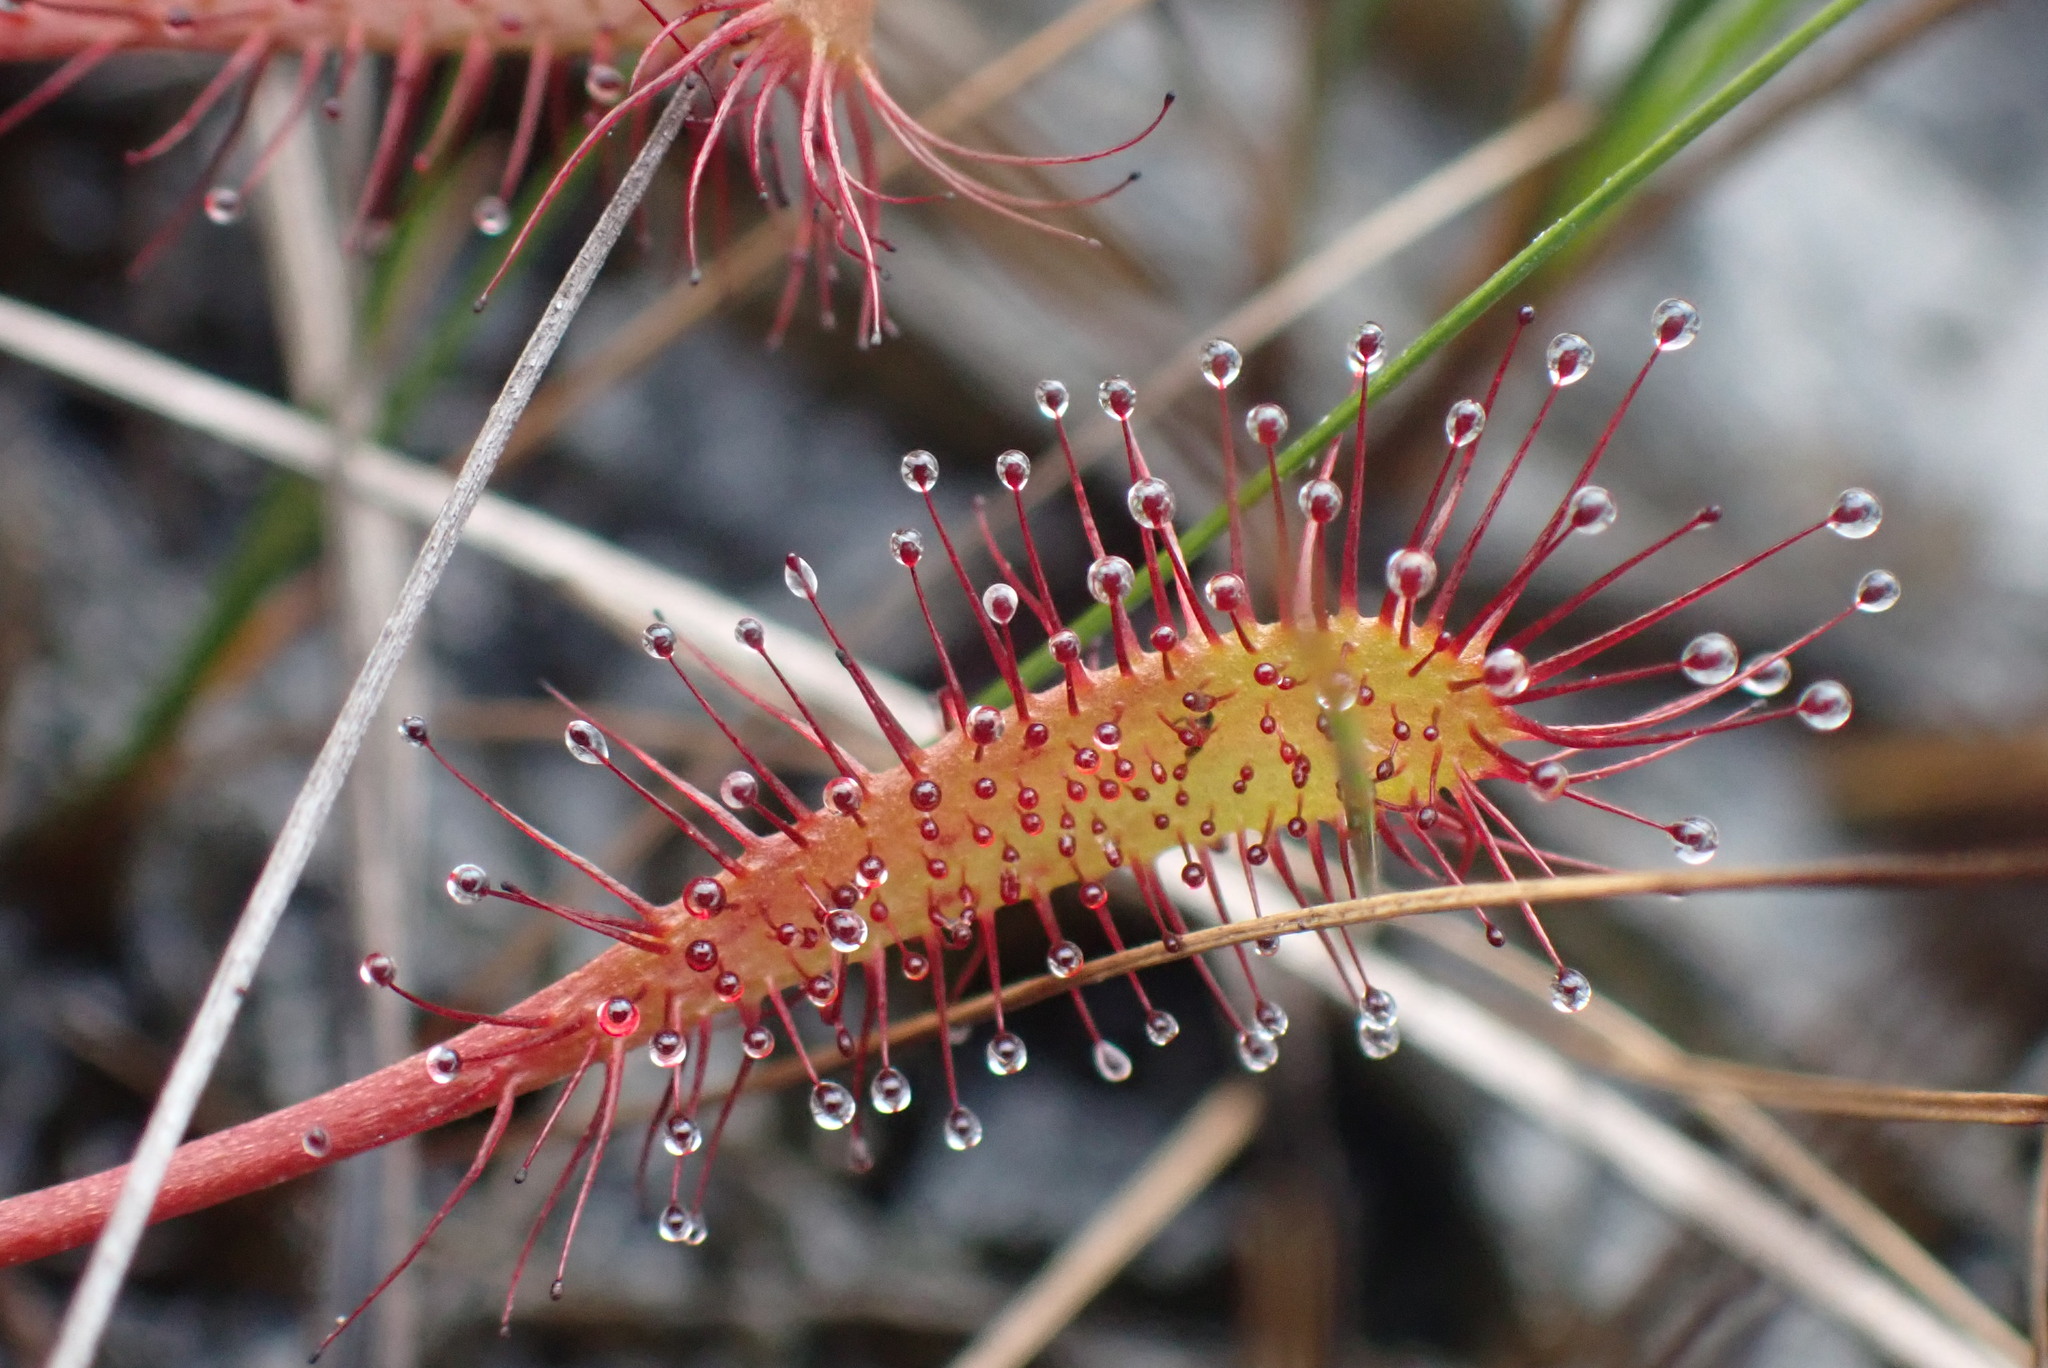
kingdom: Plantae
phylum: Tracheophyta
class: Magnoliopsida
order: Caryophyllales
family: Droseraceae
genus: Drosera
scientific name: Drosera anglica
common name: Great sundew
